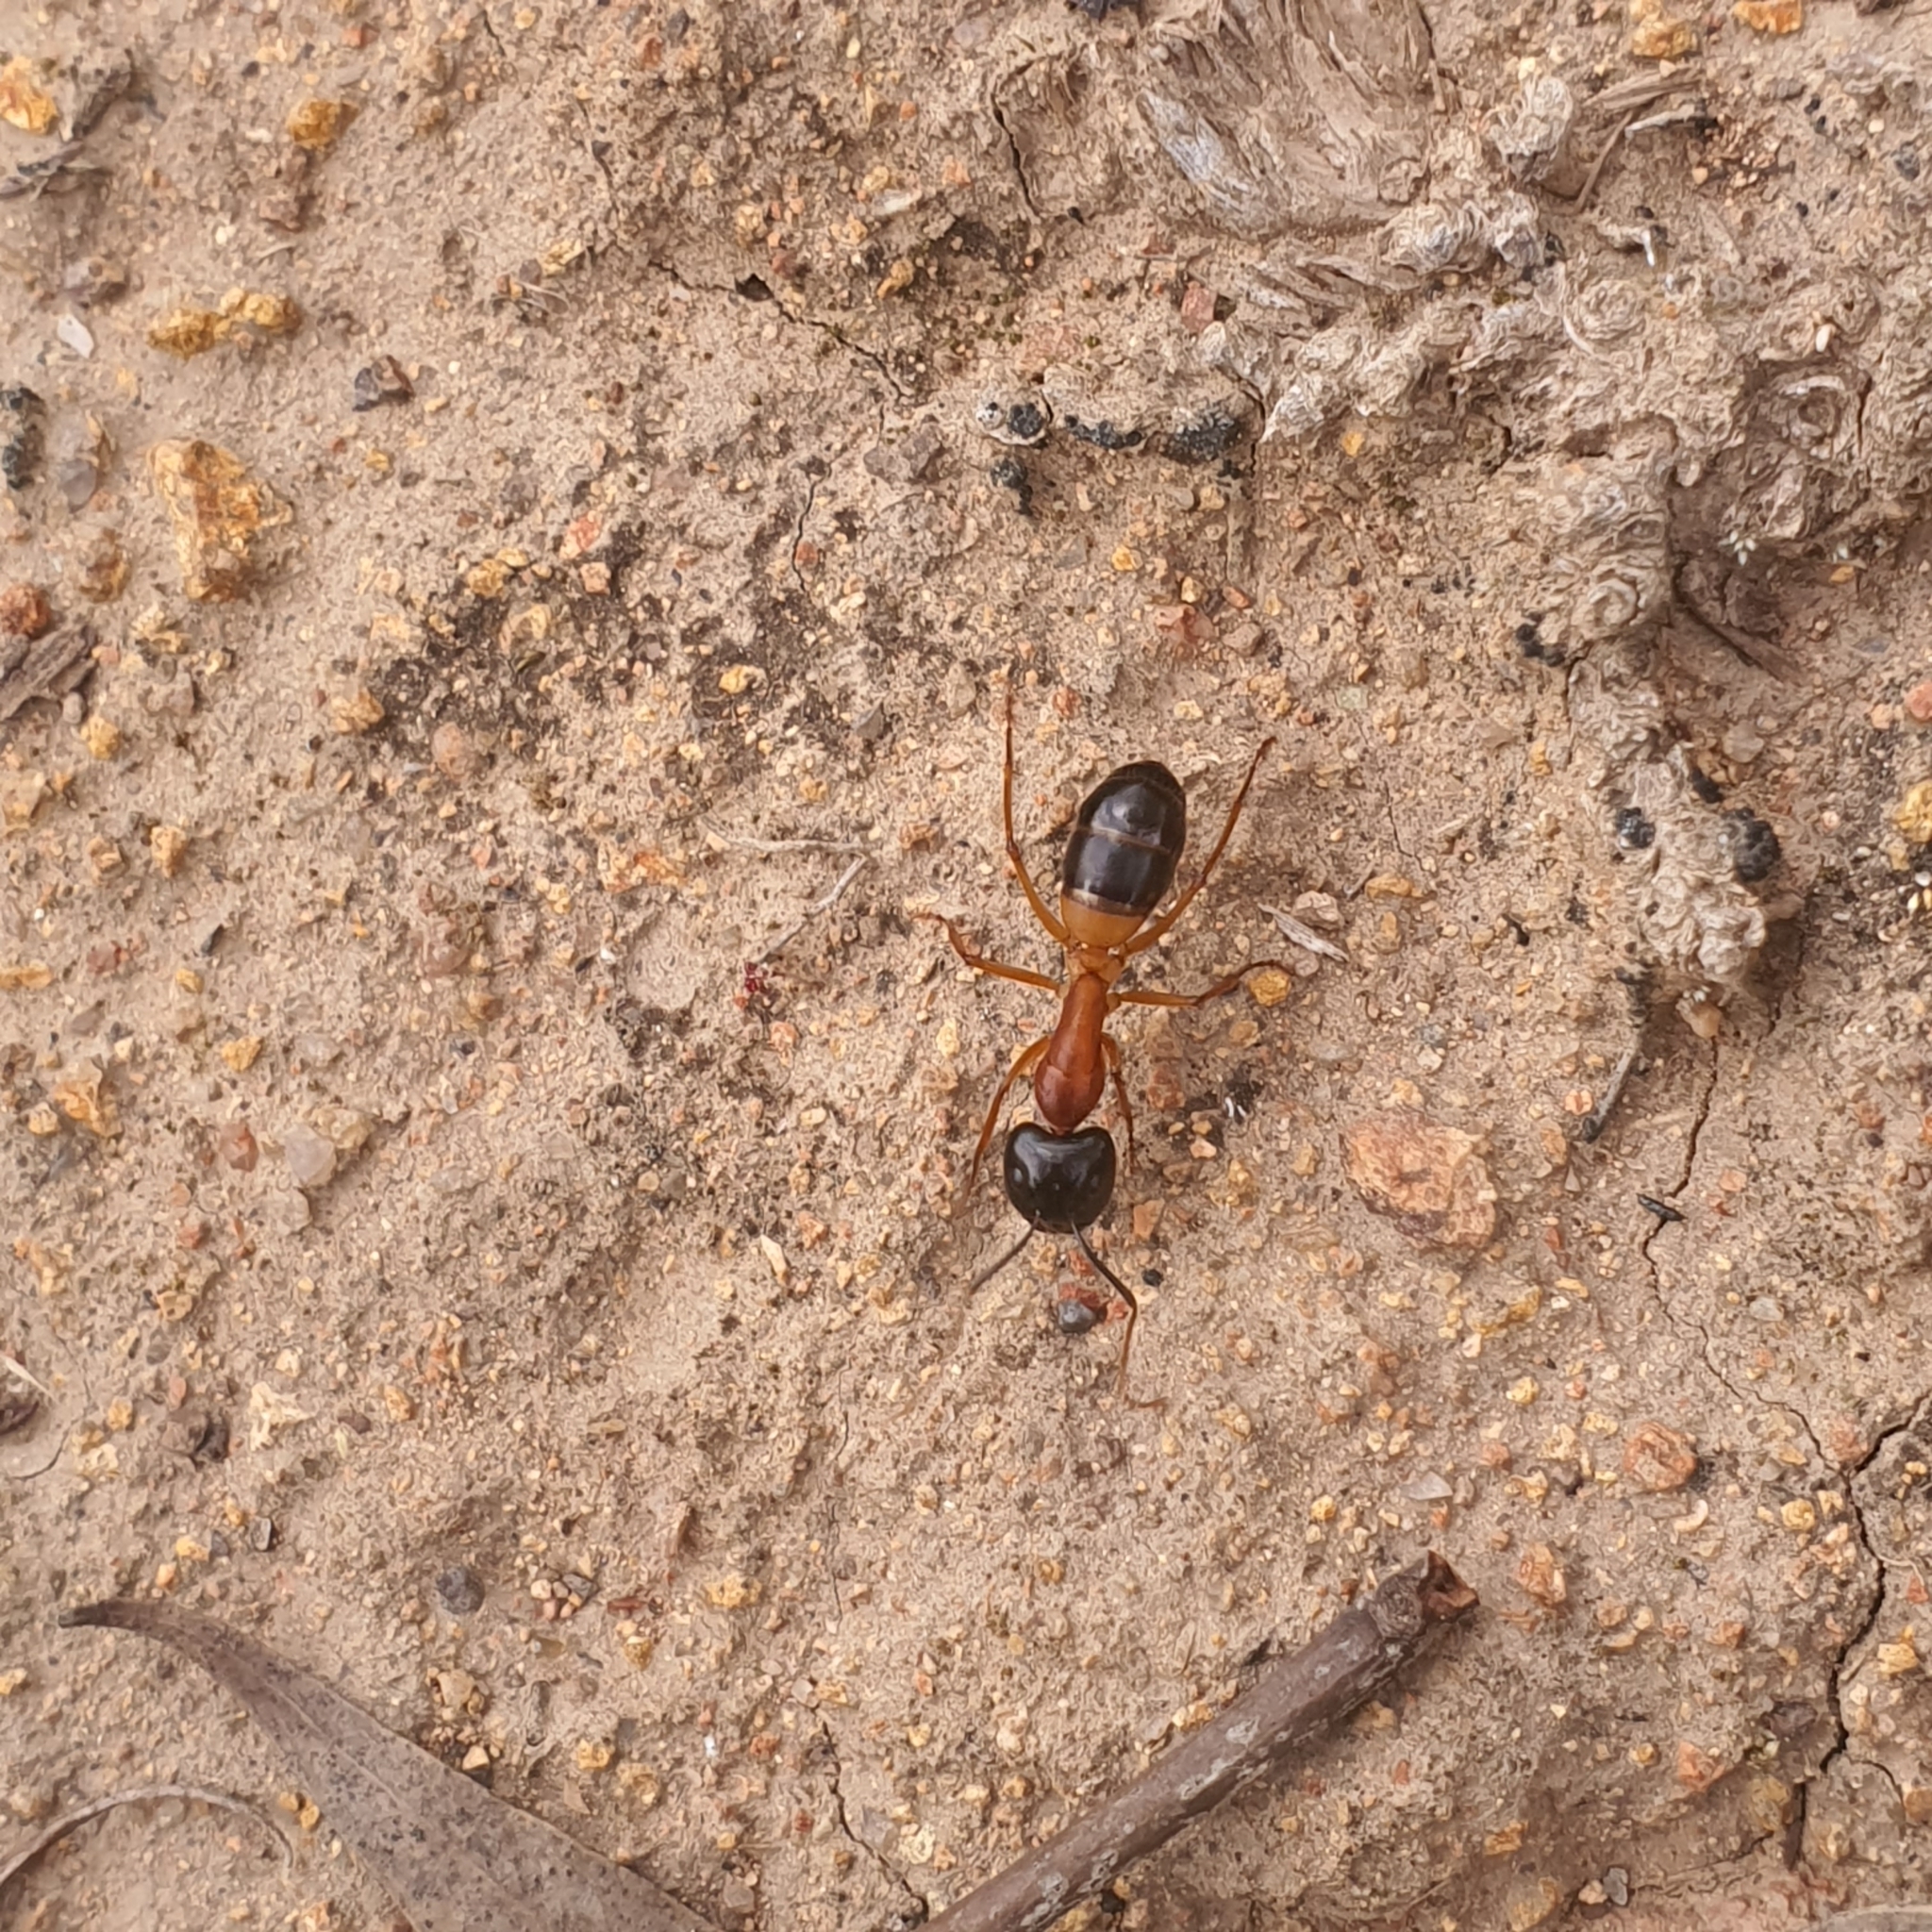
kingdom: Animalia
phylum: Arthropoda
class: Insecta
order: Hymenoptera
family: Formicidae
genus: Camponotus
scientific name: Camponotus consobrinus
